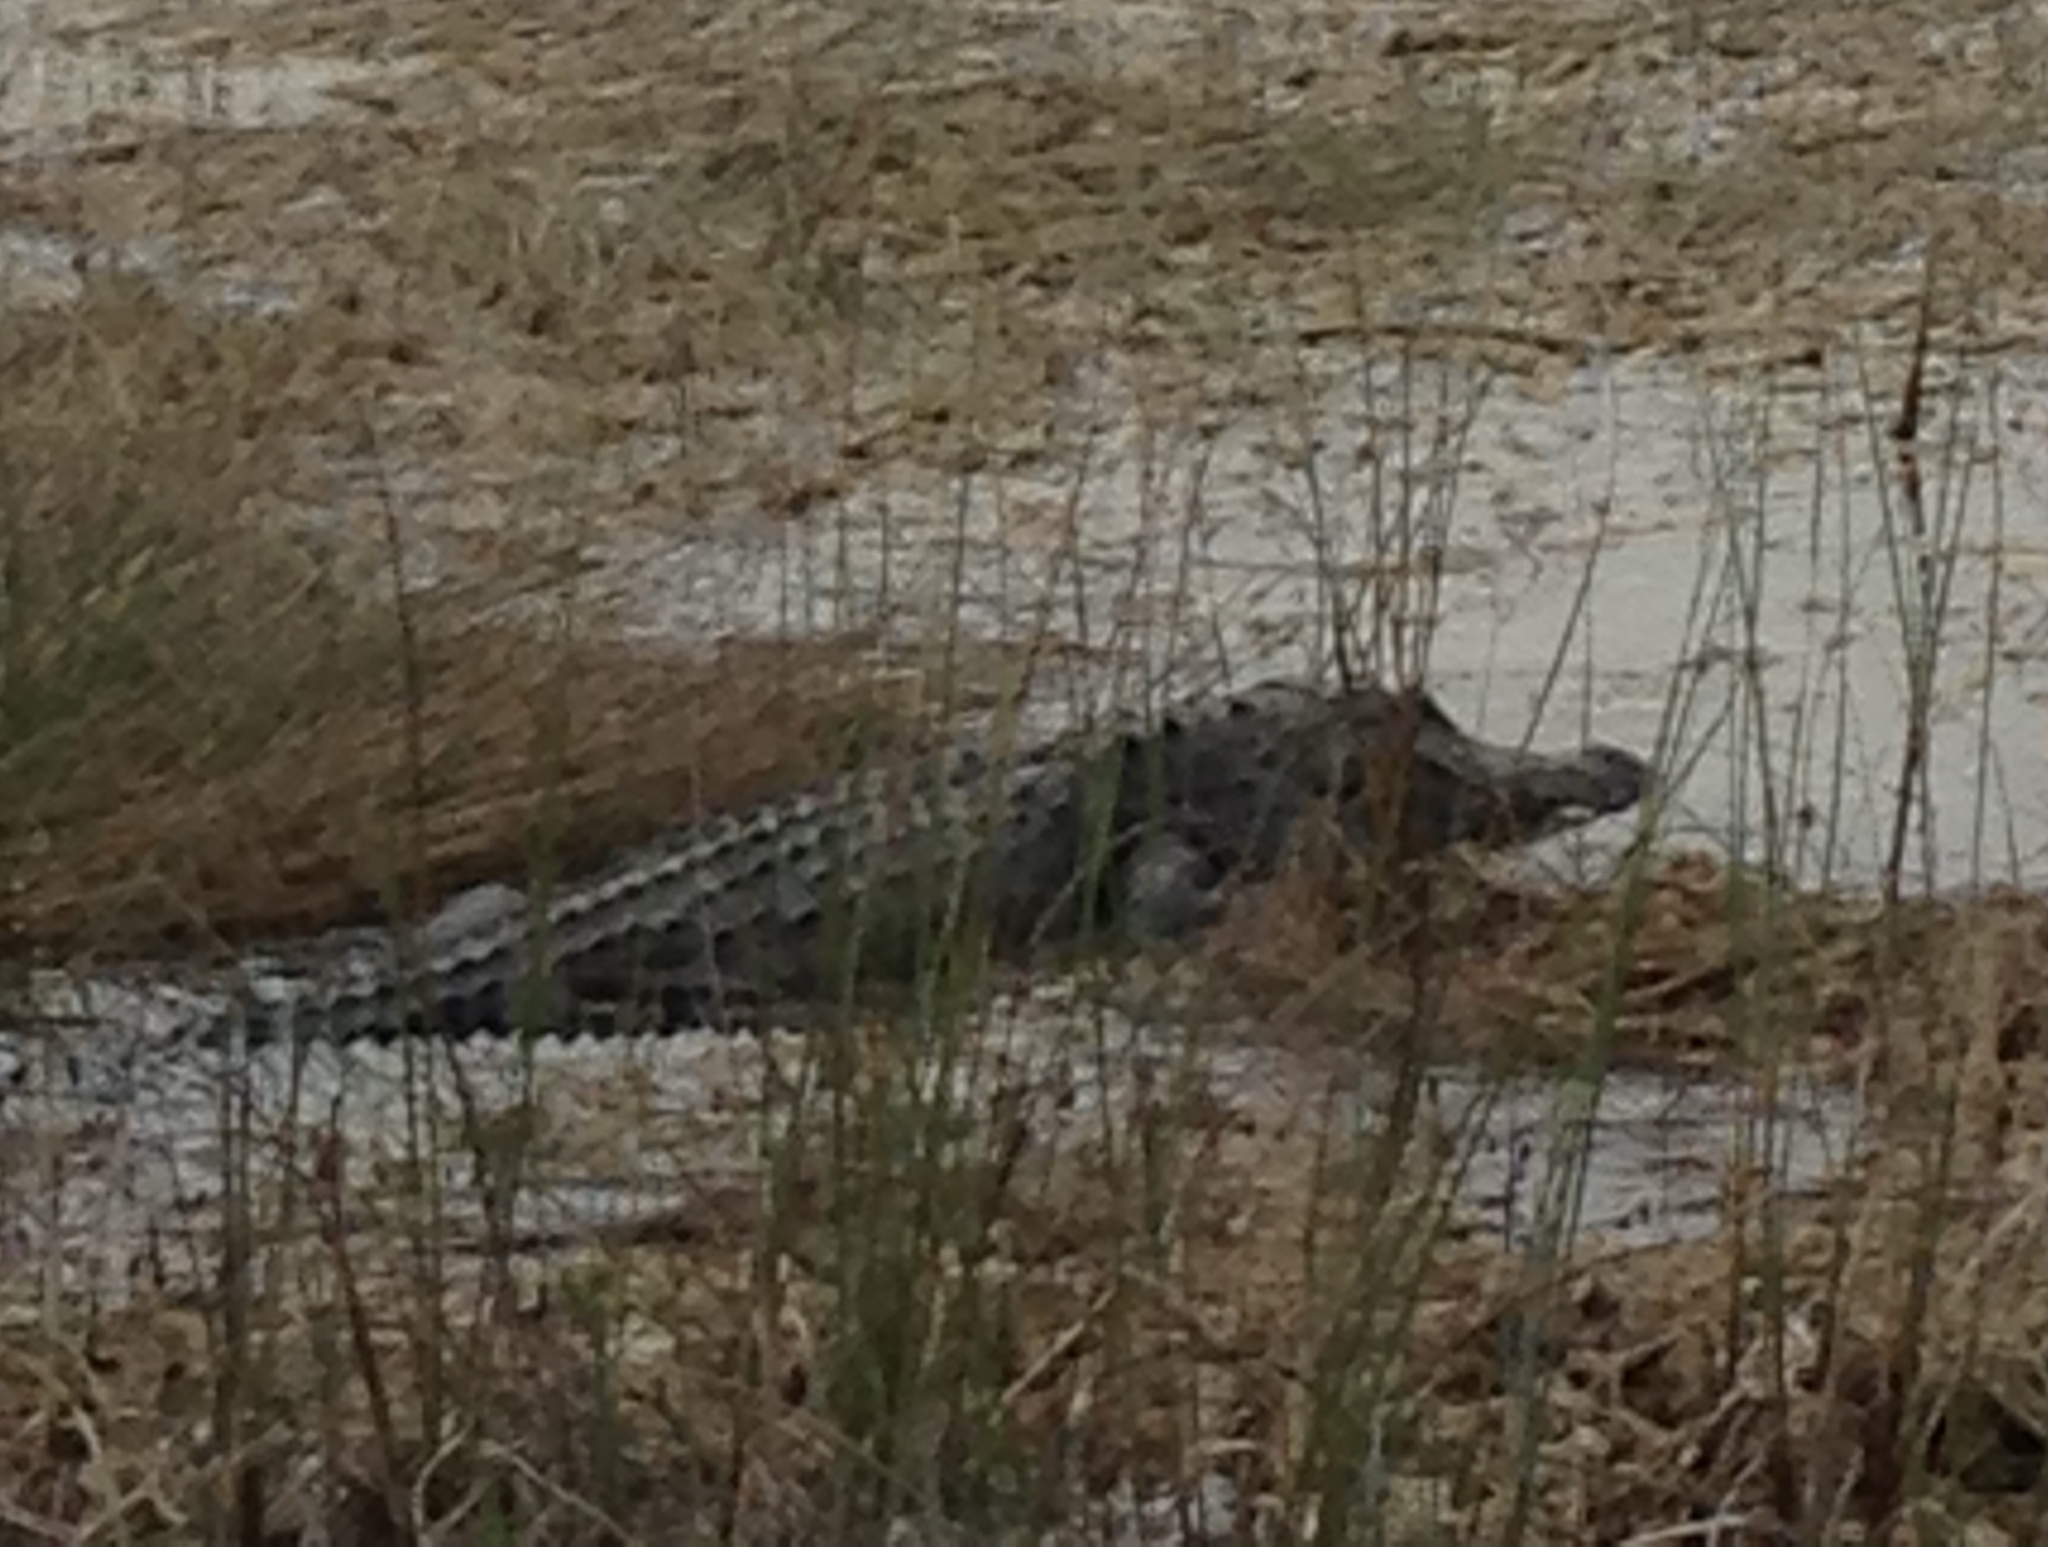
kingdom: Animalia
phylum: Chordata
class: Crocodylia
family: Alligatoridae
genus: Alligator
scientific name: Alligator mississippiensis
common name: American alligator
